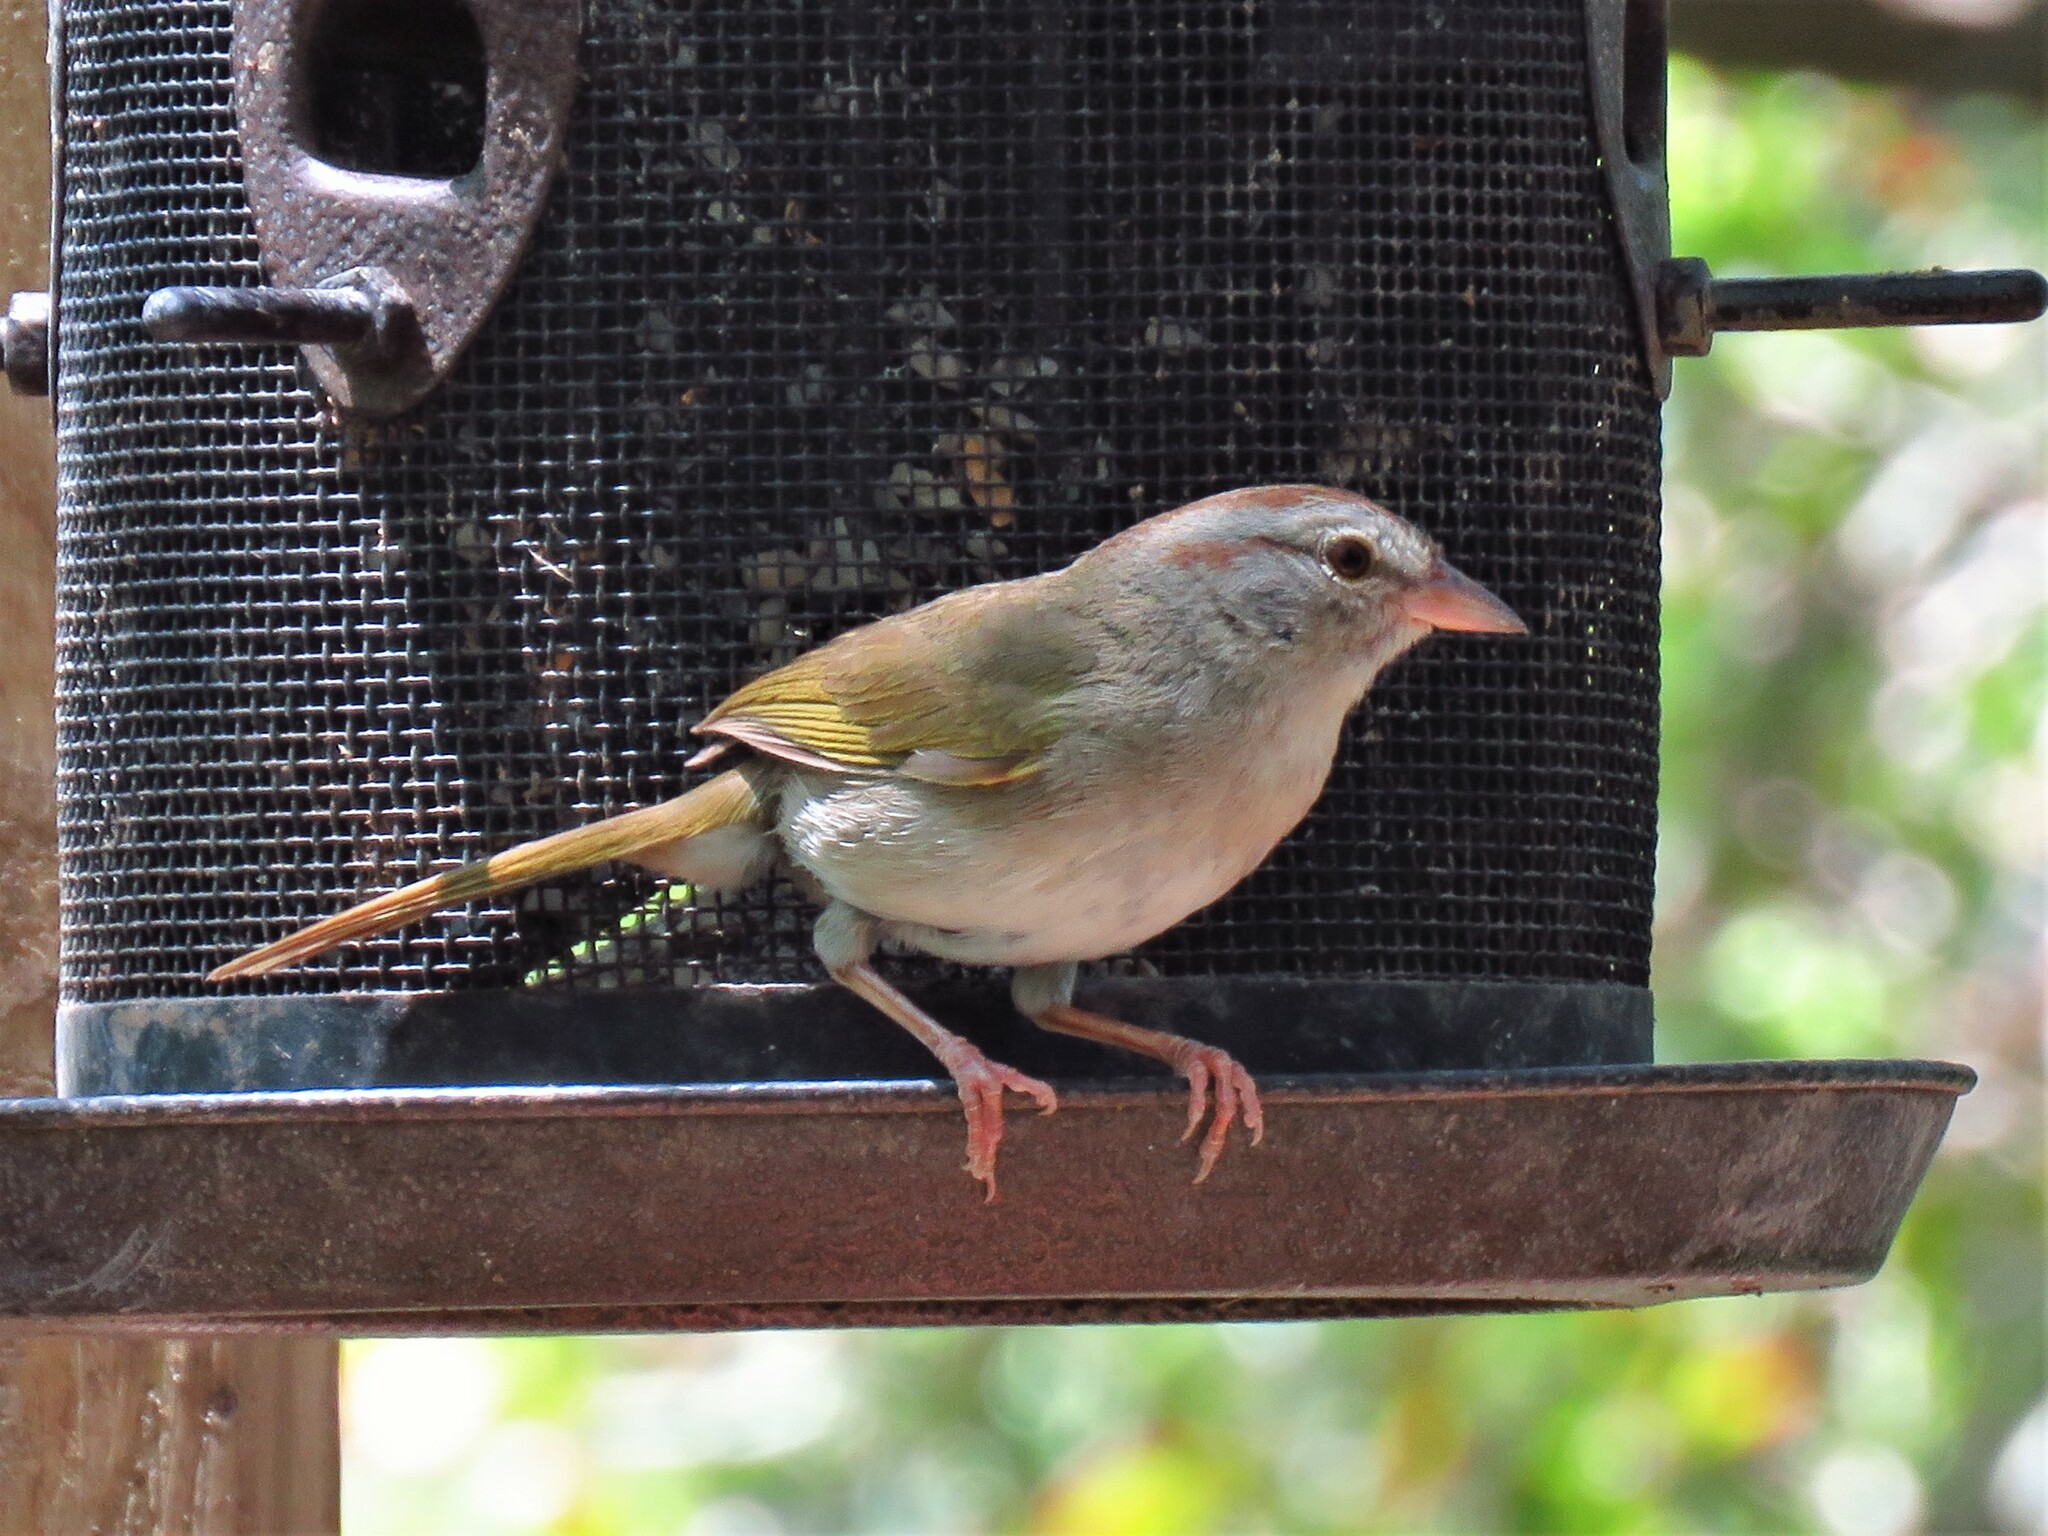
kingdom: Animalia
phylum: Chordata
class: Aves
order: Passeriformes
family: Passerellidae
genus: Arremonops
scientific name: Arremonops rufivirgatus
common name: Olive sparrow
